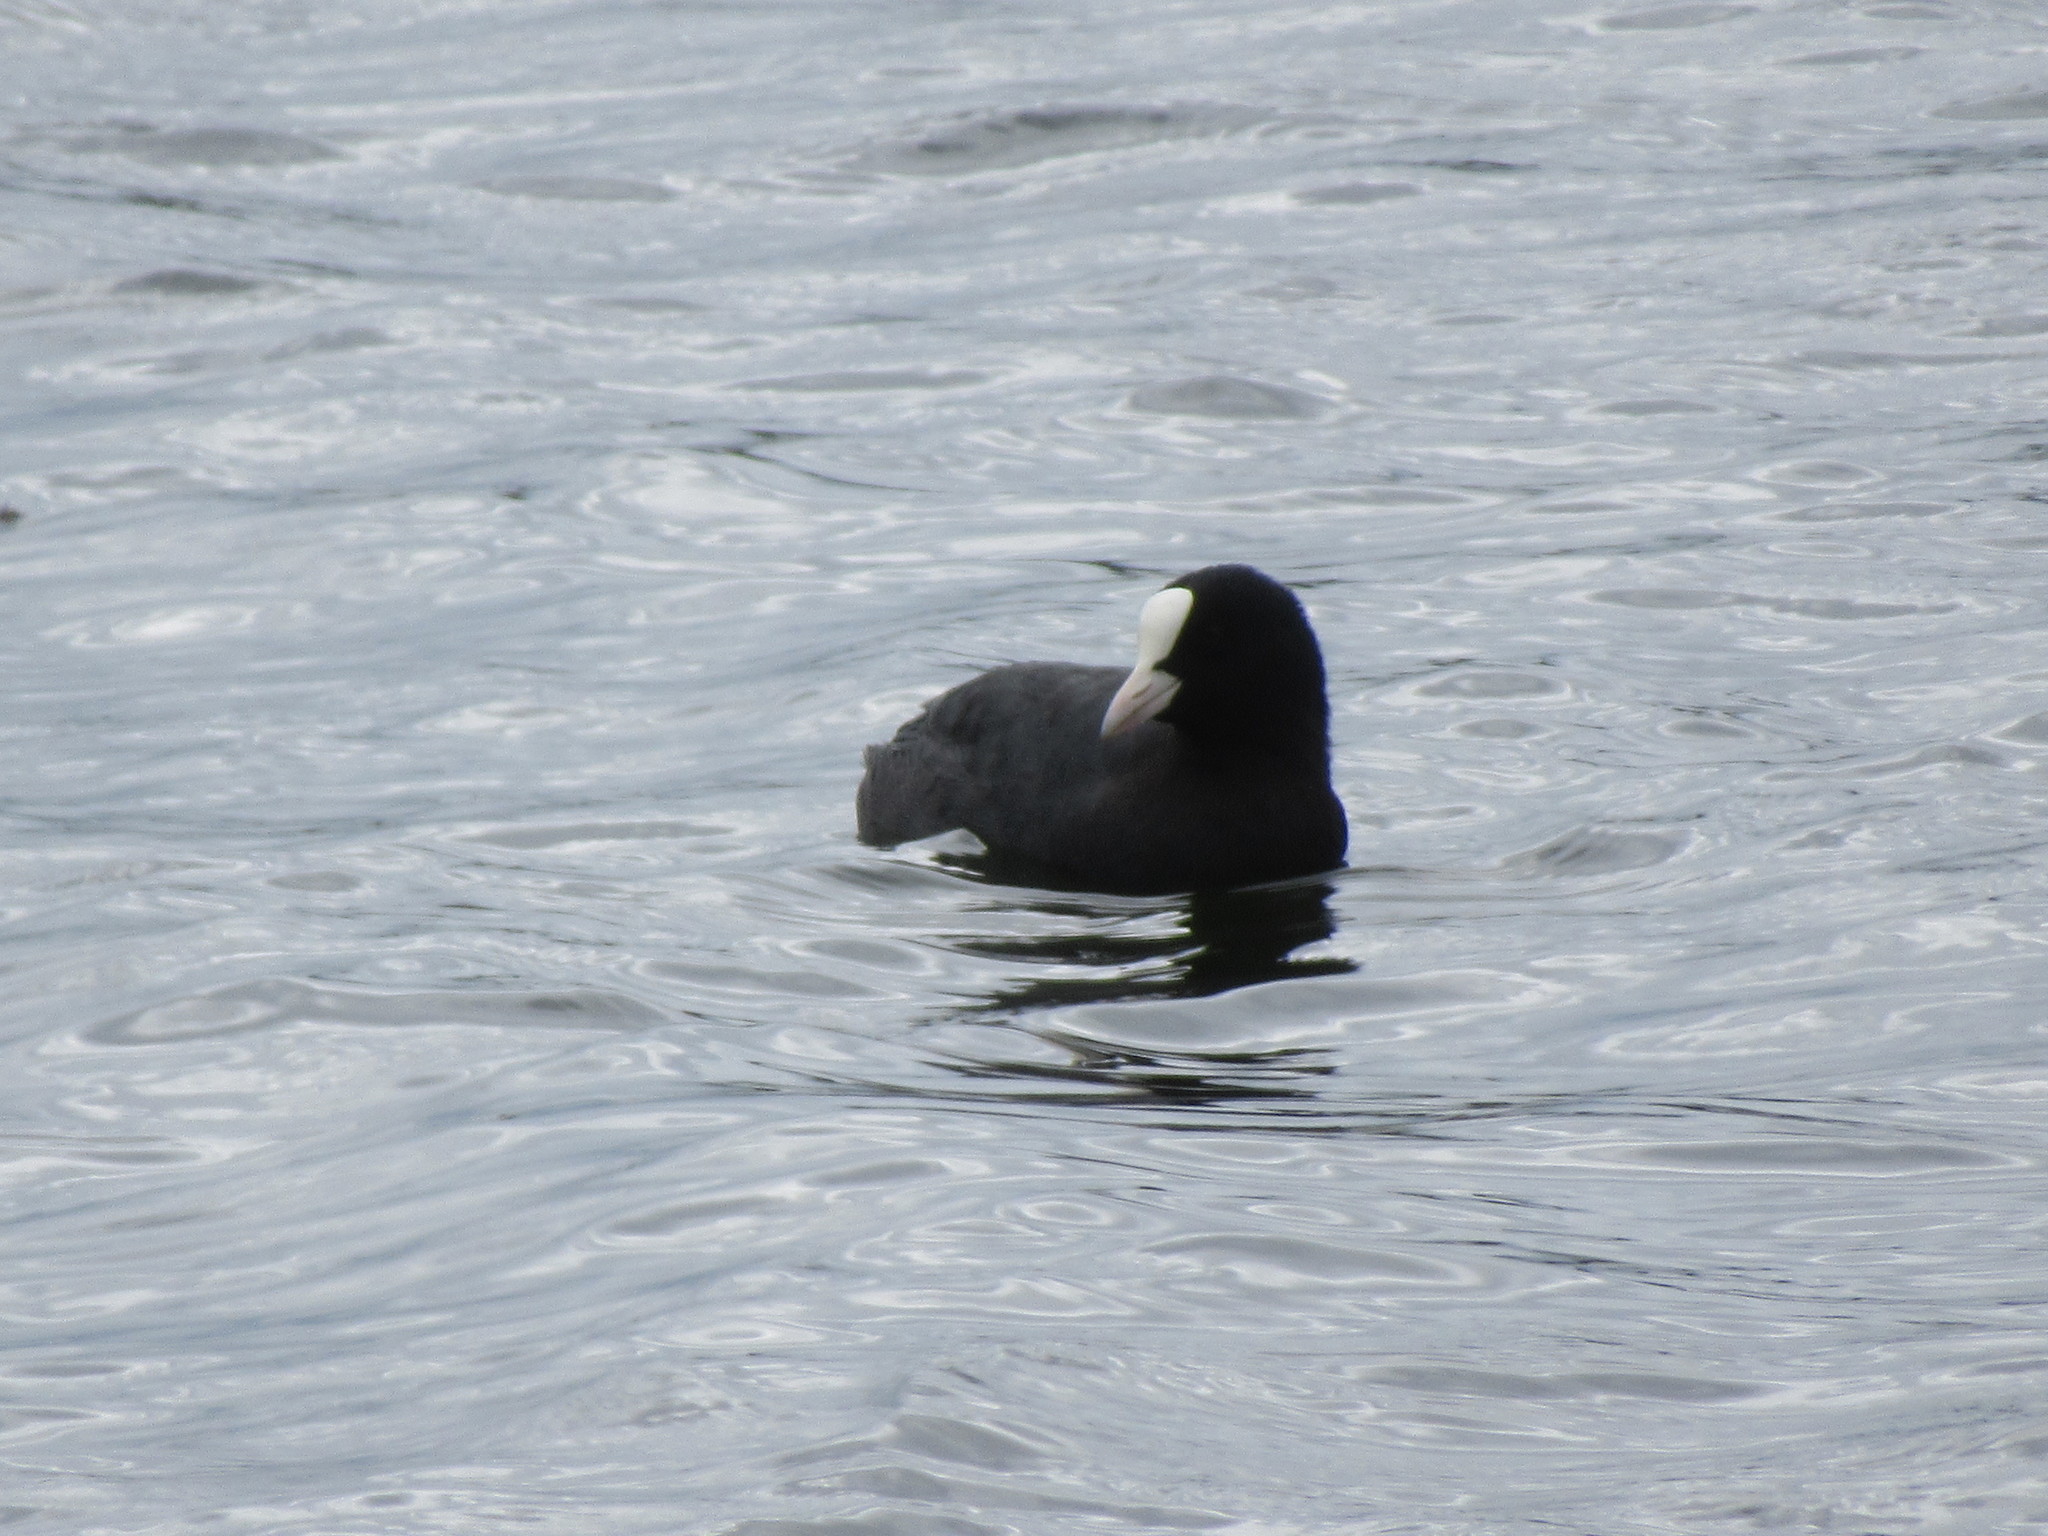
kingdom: Animalia
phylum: Chordata
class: Aves
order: Gruiformes
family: Rallidae
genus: Fulica
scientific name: Fulica atra
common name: Eurasian coot
